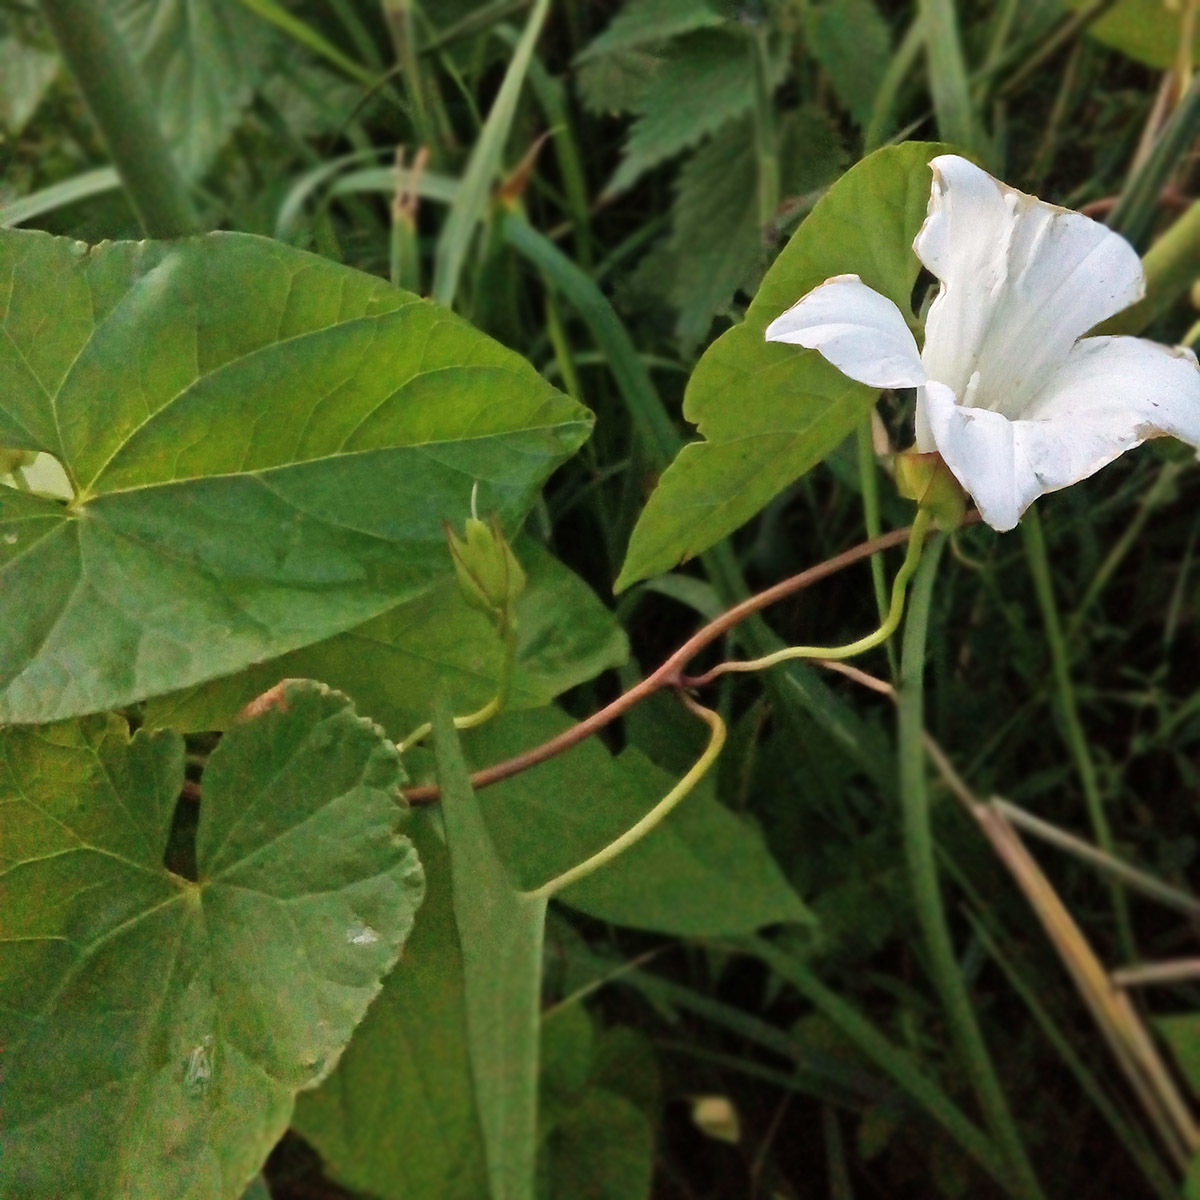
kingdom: Plantae
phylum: Tracheophyta
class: Magnoliopsida
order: Solanales
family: Convolvulaceae
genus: Calystegia
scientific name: Calystegia sepium
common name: Hedge bindweed
